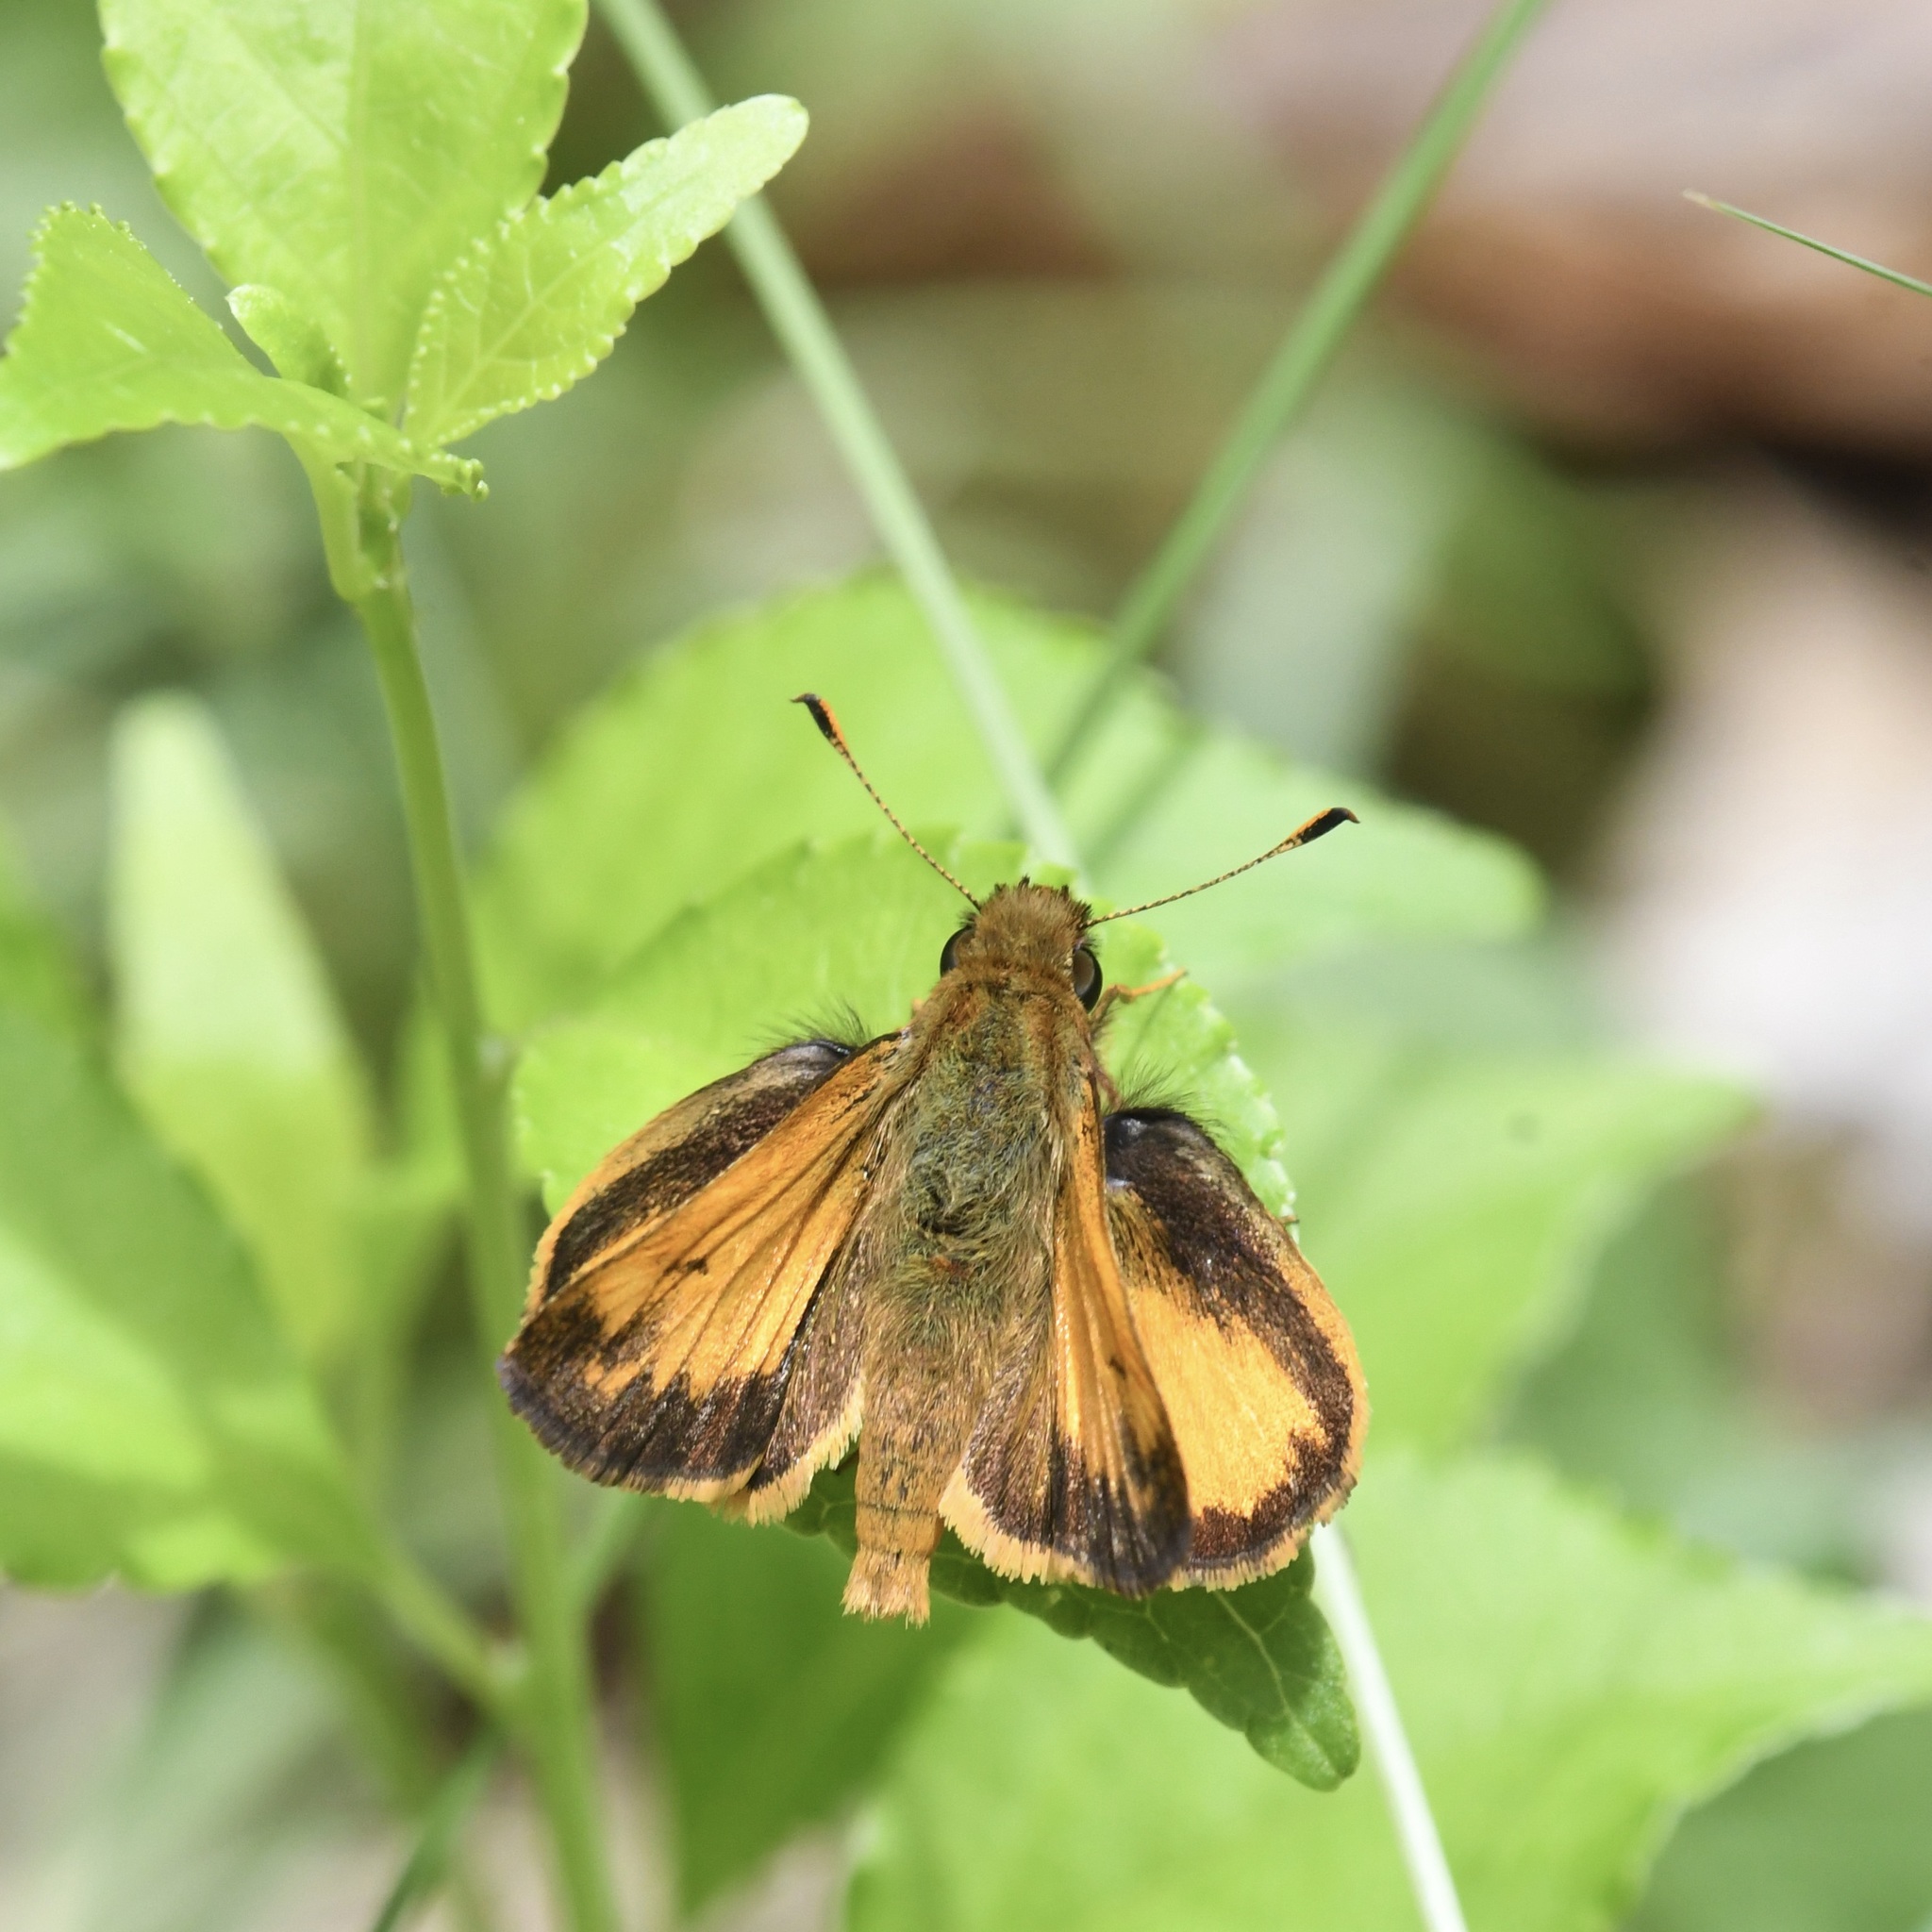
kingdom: Animalia
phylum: Arthropoda
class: Insecta
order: Lepidoptera
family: Hesperiidae
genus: Lon
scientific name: Lon zabulon
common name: Zabulon skipper
